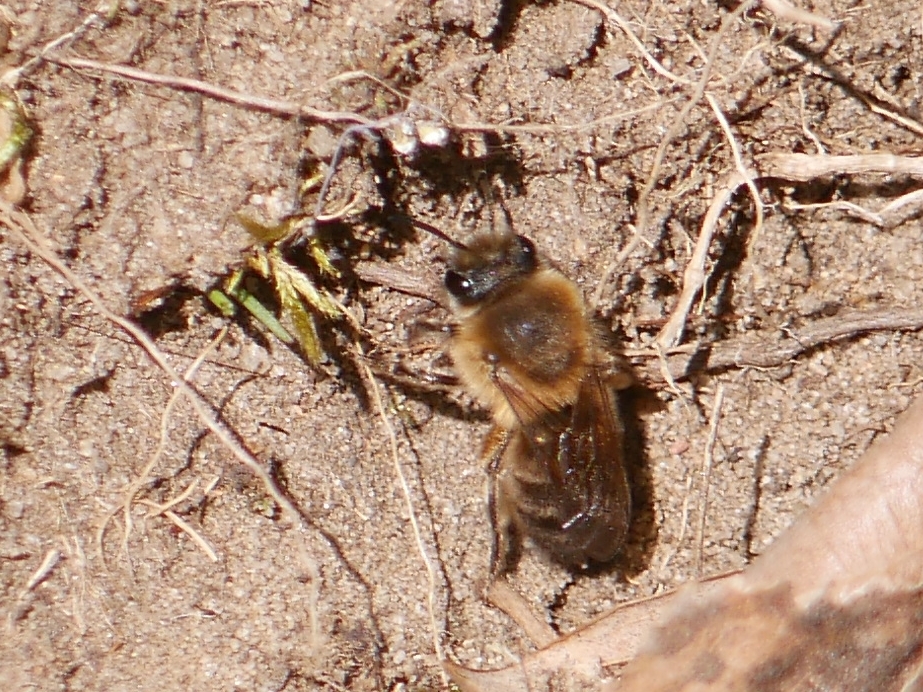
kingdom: Animalia
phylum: Arthropoda
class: Insecta
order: Hymenoptera
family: Colletidae
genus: Colletes
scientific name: Colletes cunicularius
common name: Early colletes
